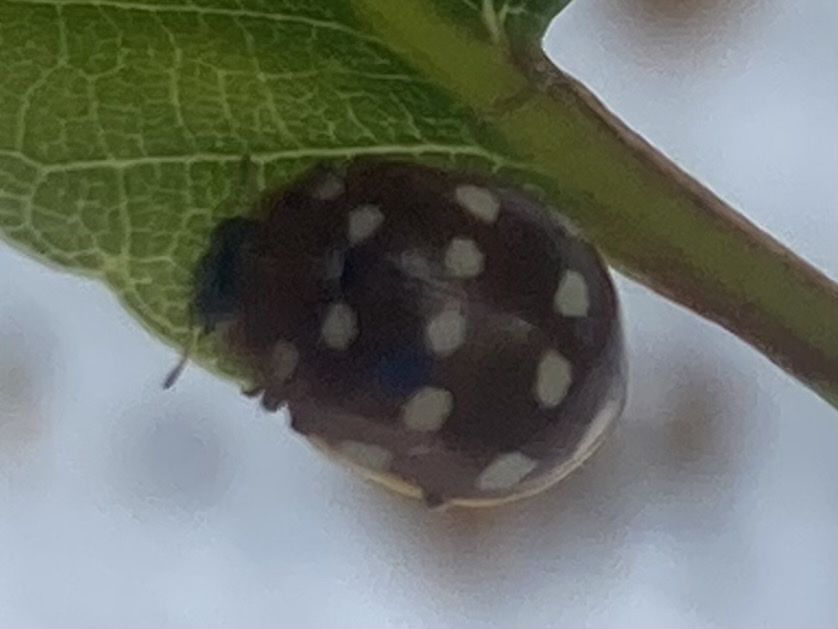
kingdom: Animalia
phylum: Arthropoda
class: Insecta
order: Coleoptera
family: Coccinellidae
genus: Calvia
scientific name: Calvia quatuordecimguttata
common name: Cream-spot ladybird
